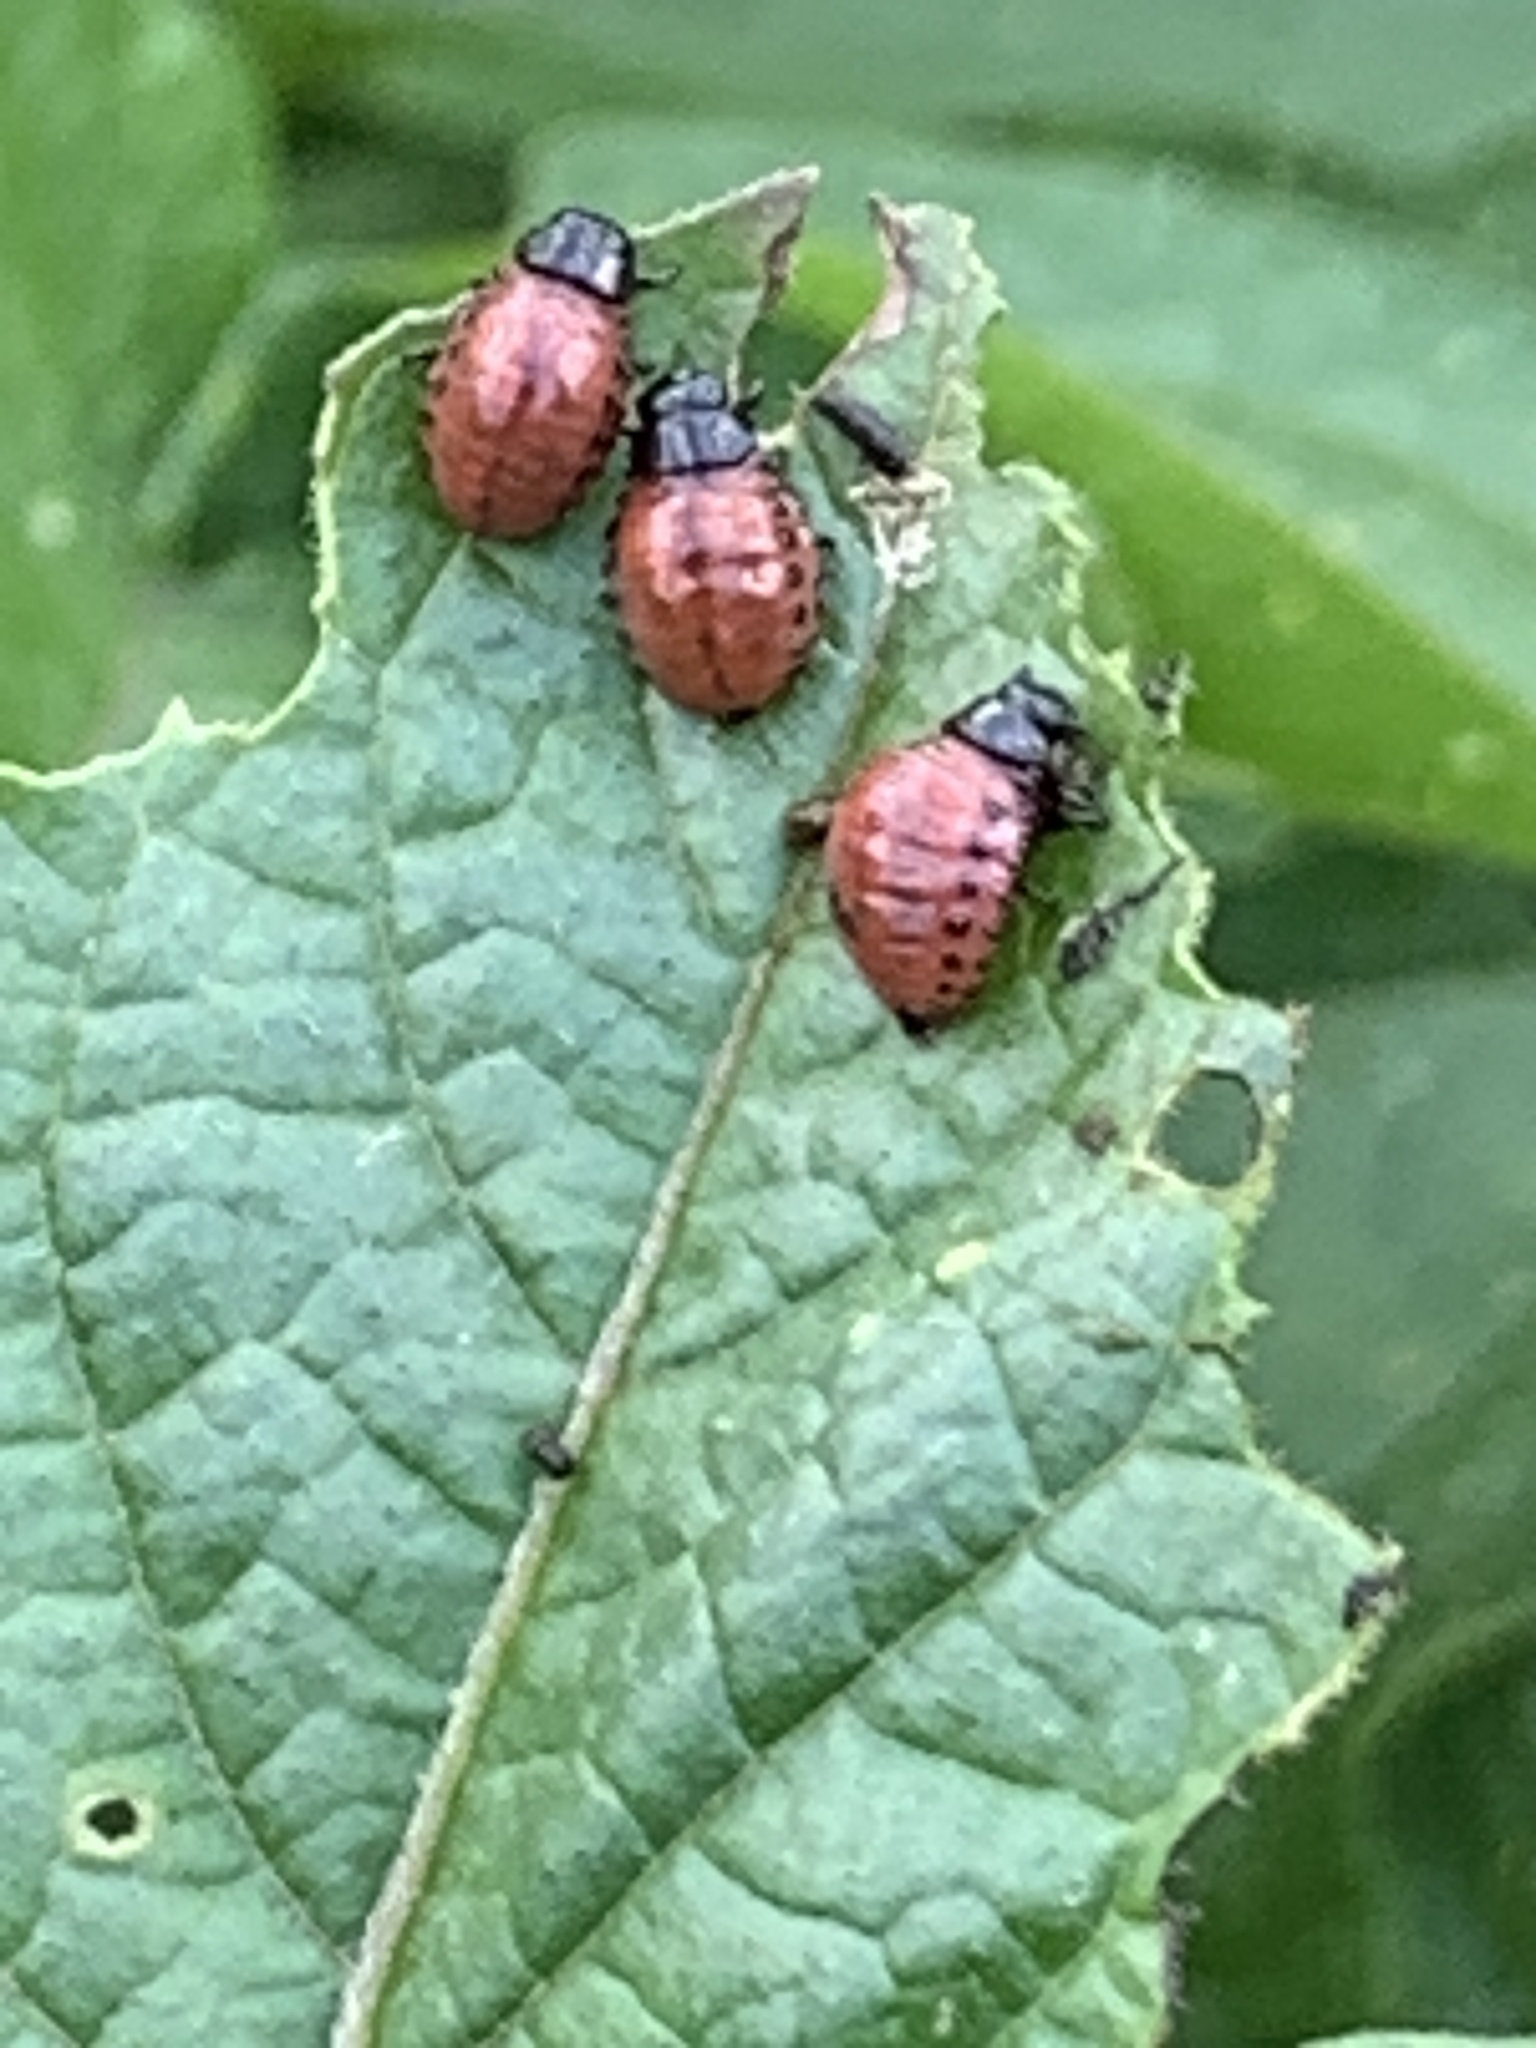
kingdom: Animalia
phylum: Arthropoda
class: Insecta
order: Coleoptera
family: Chrysomelidae
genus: Leptinotarsa
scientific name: Leptinotarsa decemlineata
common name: Colorado potato beetle
